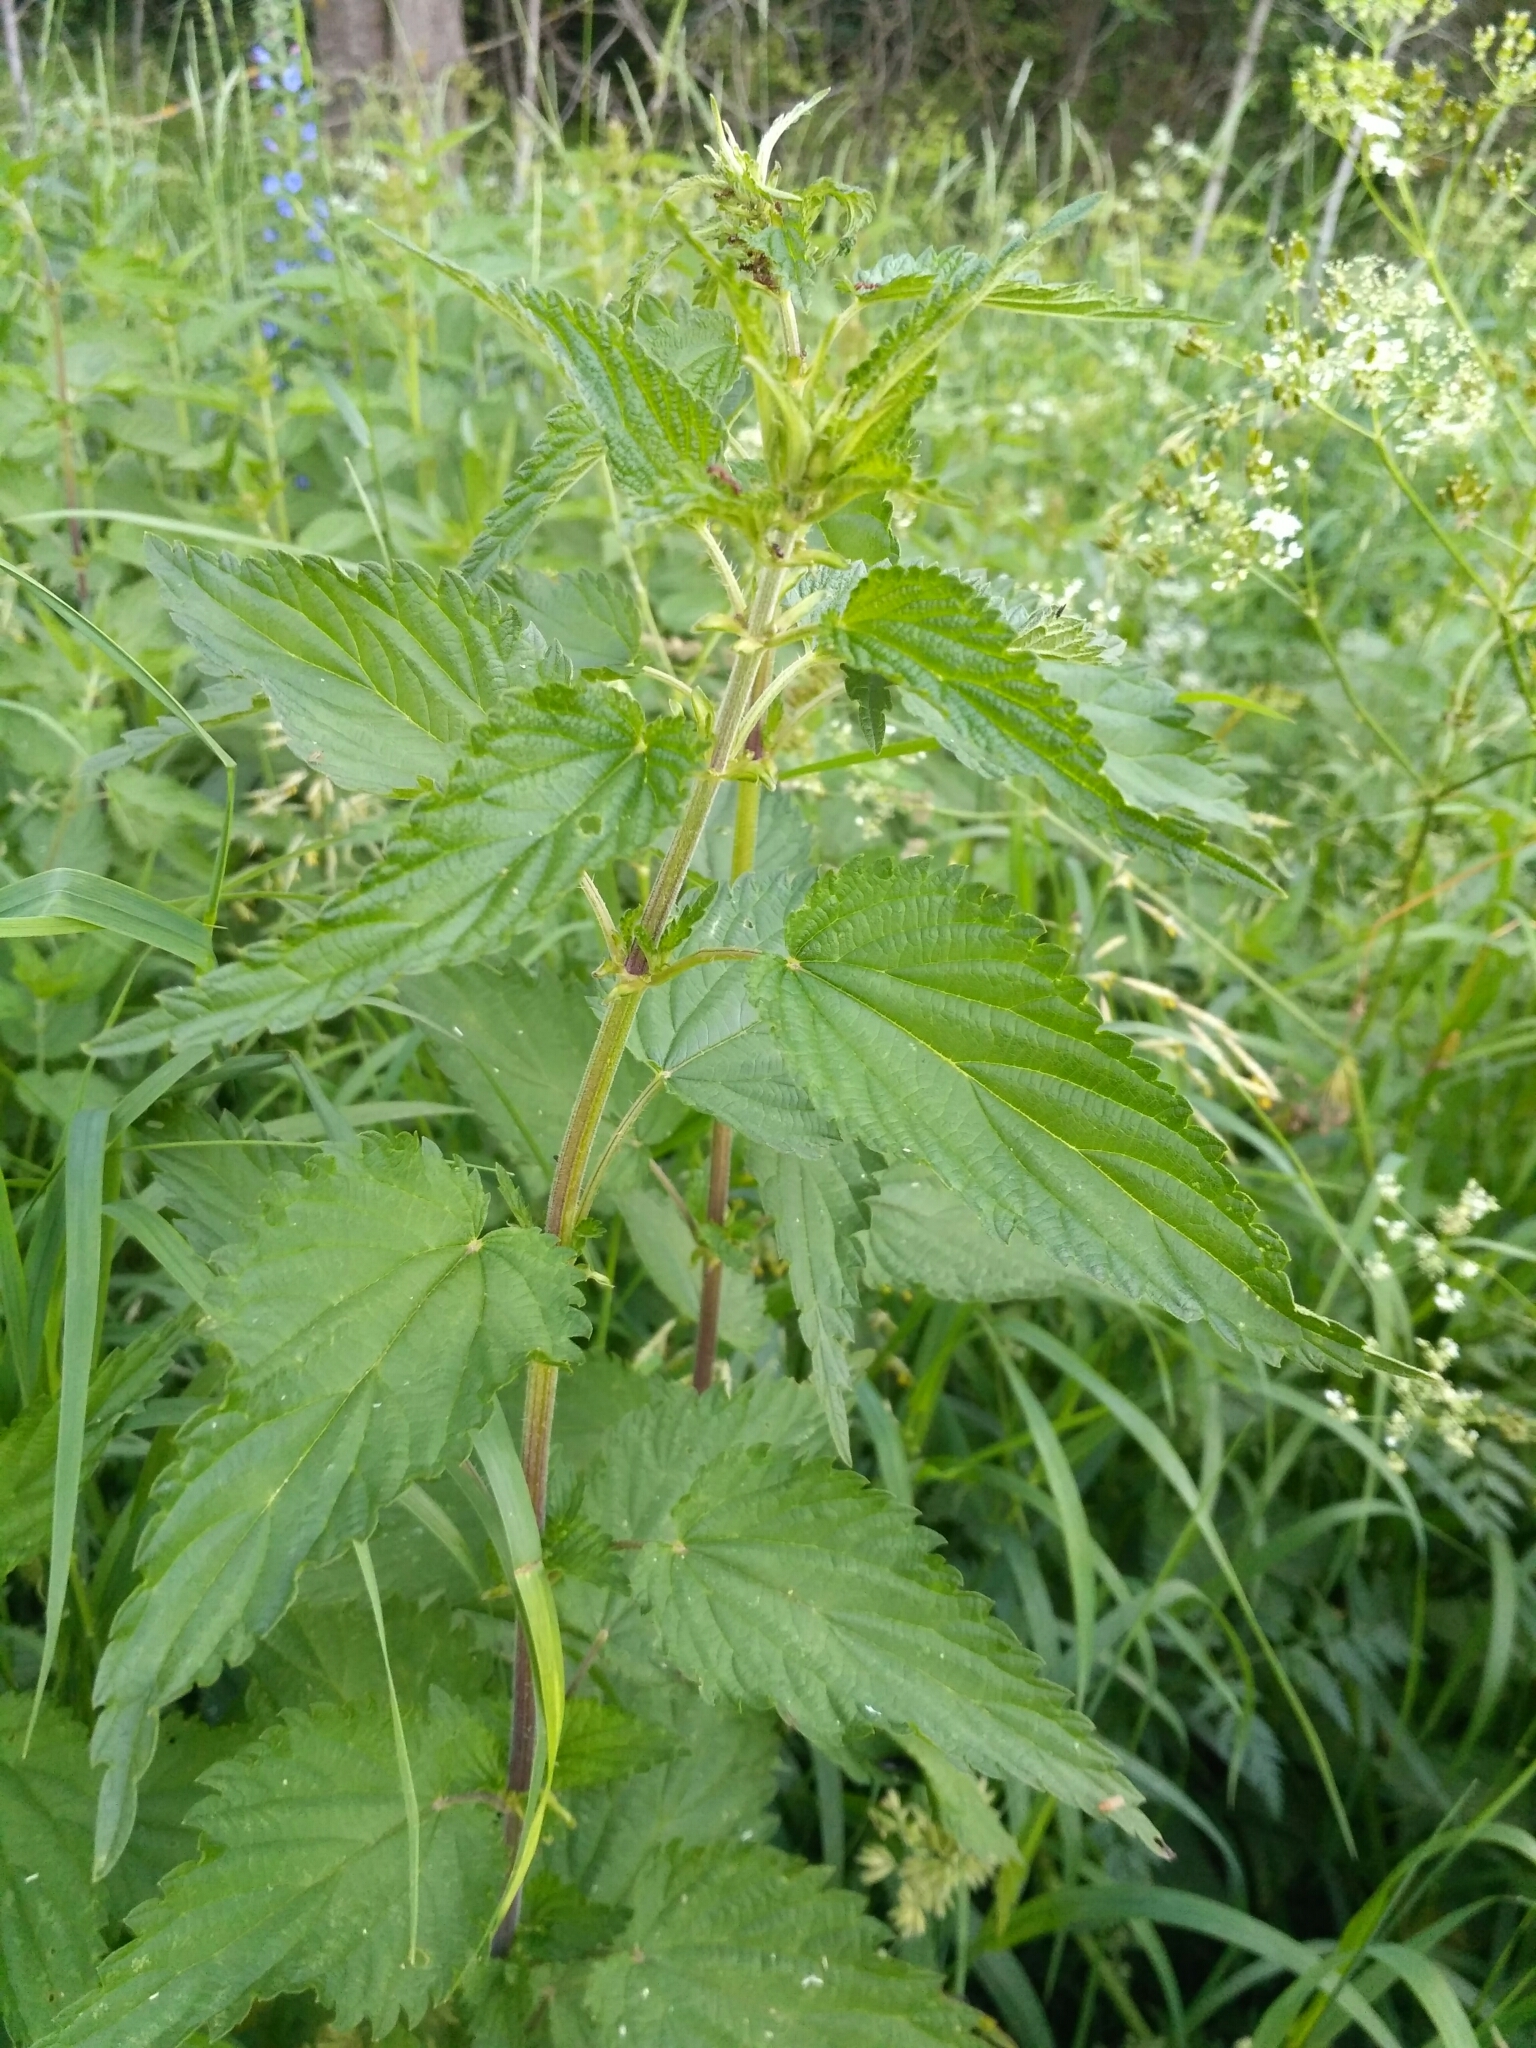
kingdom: Plantae
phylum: Tracheophyta
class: Magnoliopsida
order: Rosales
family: Urticaceae
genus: Urtica
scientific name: Urtica dioica
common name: Common nettle
